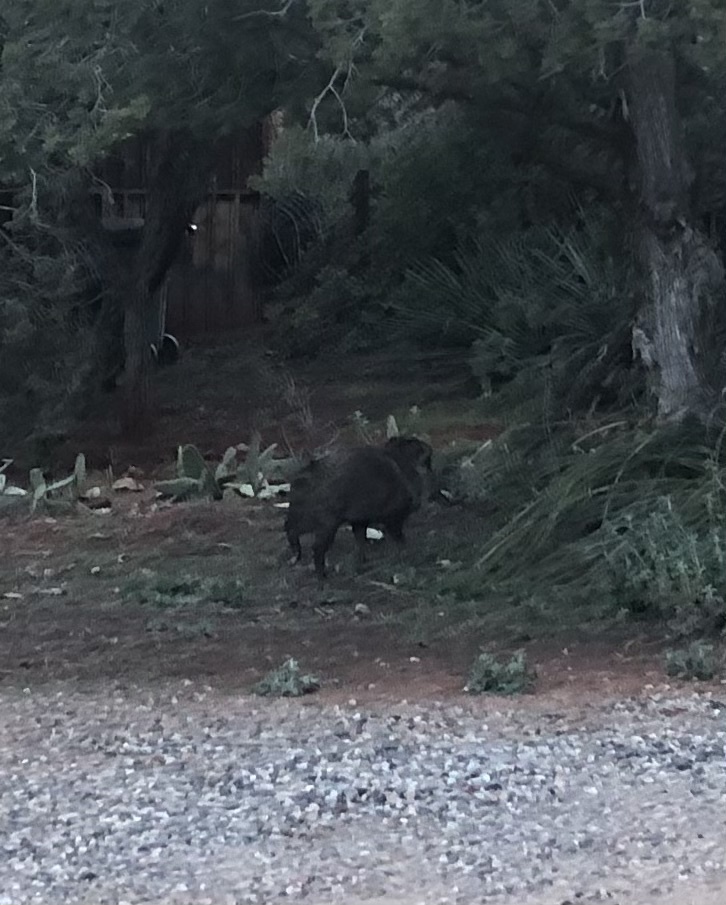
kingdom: Animalia
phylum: Chordata
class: Mammalia
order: Artiodactyla
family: Tayassuidae
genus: Pecari
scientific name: Pecari tajacu
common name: Collared peccary
